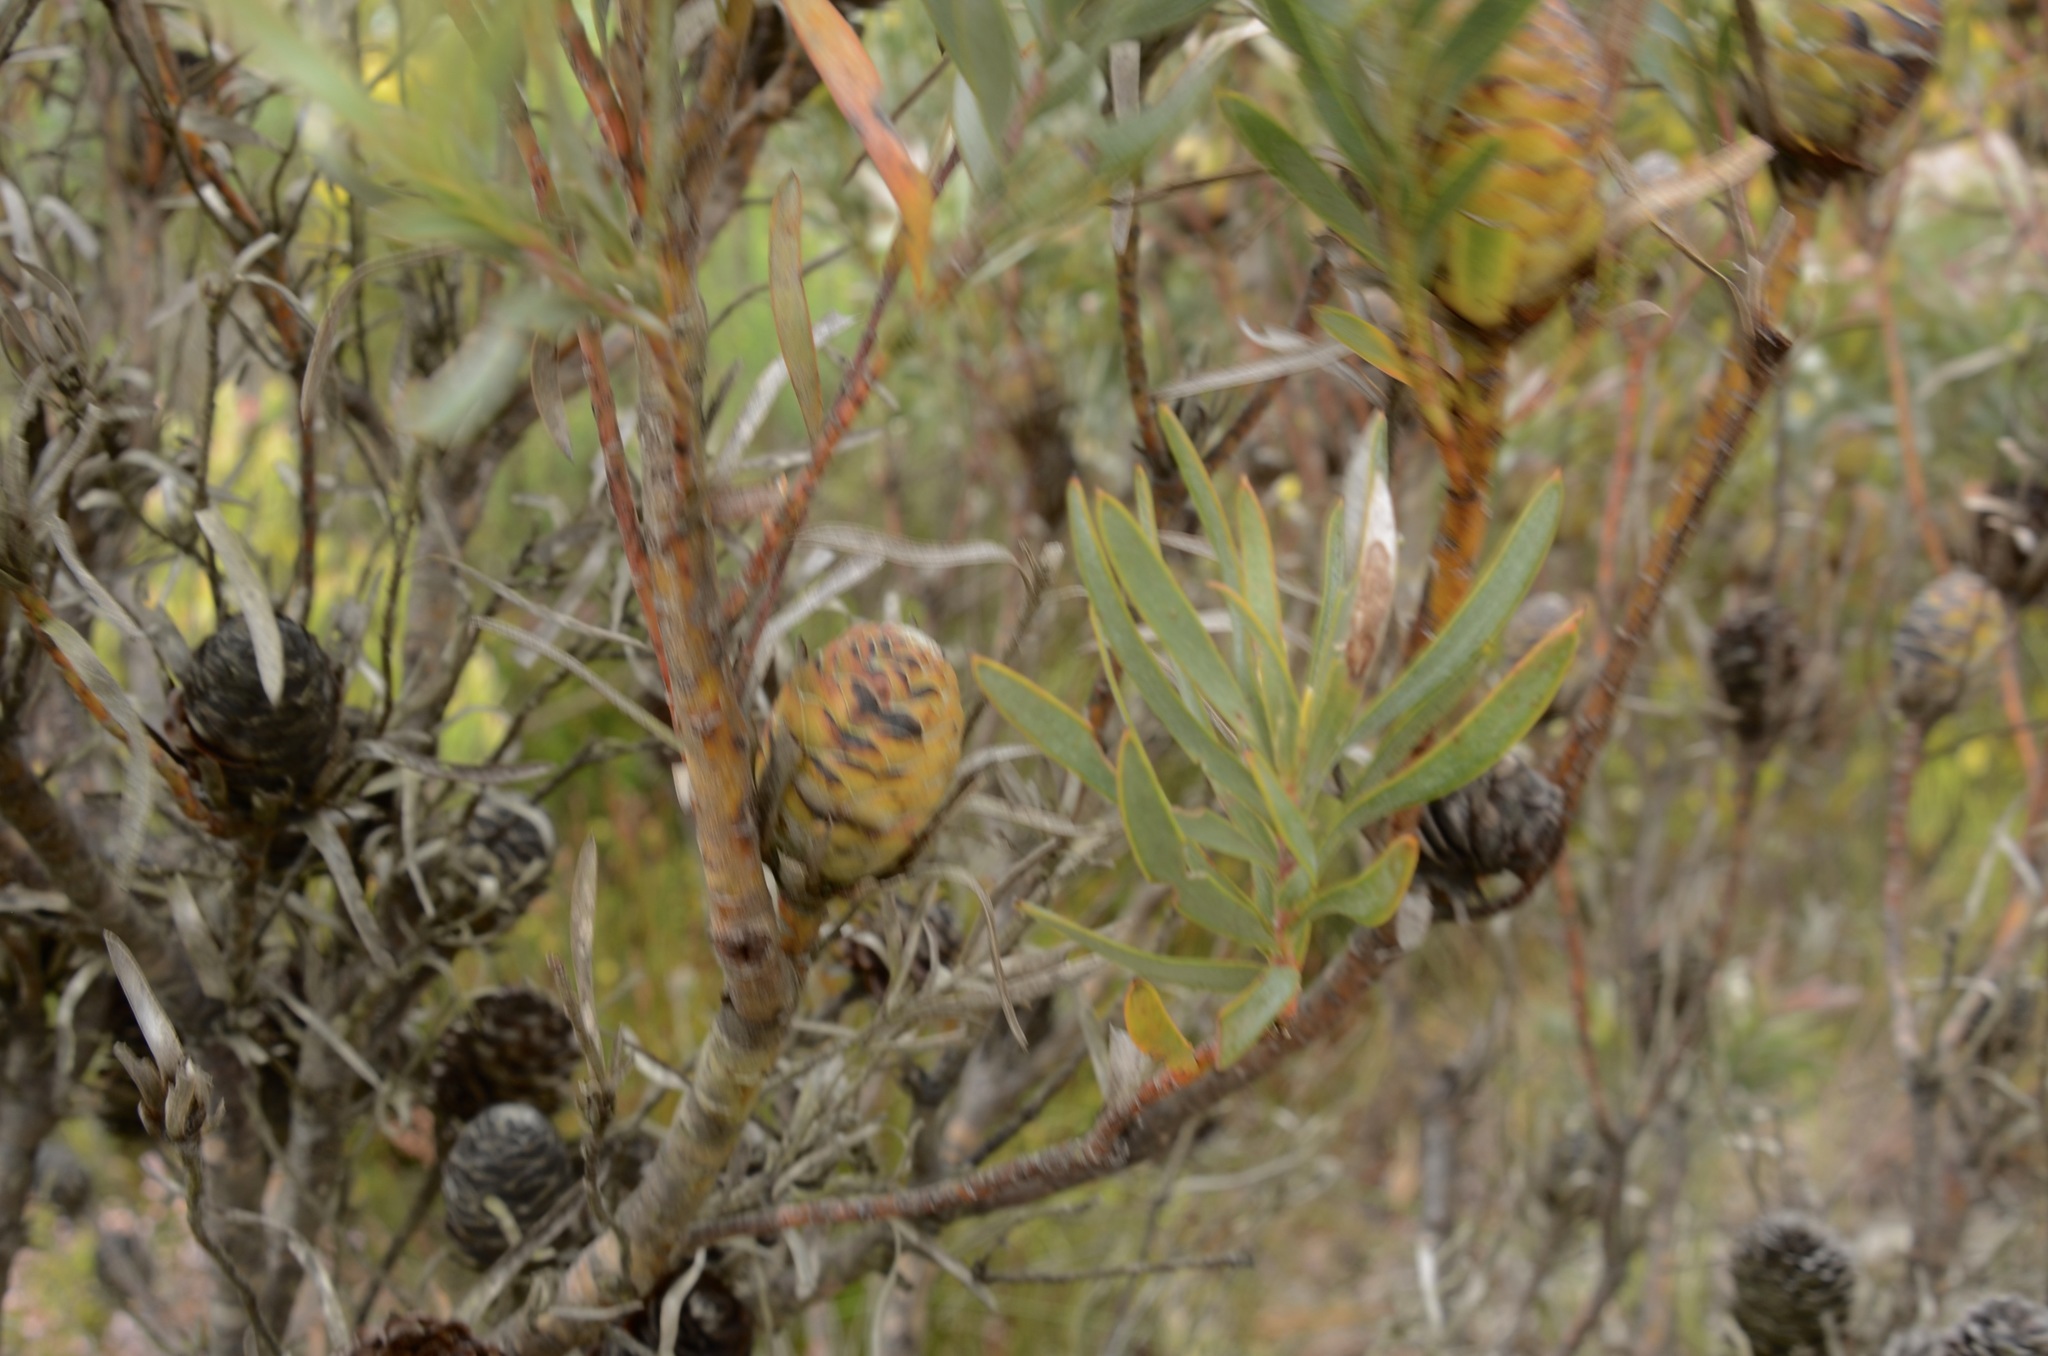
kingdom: Plantae
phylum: Tracheophyta
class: Magnoliopsida
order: Proteales
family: Proteaceae
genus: Leucadendron
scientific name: Leucadendron xanthoconus
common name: Sickle-leaf conebush
